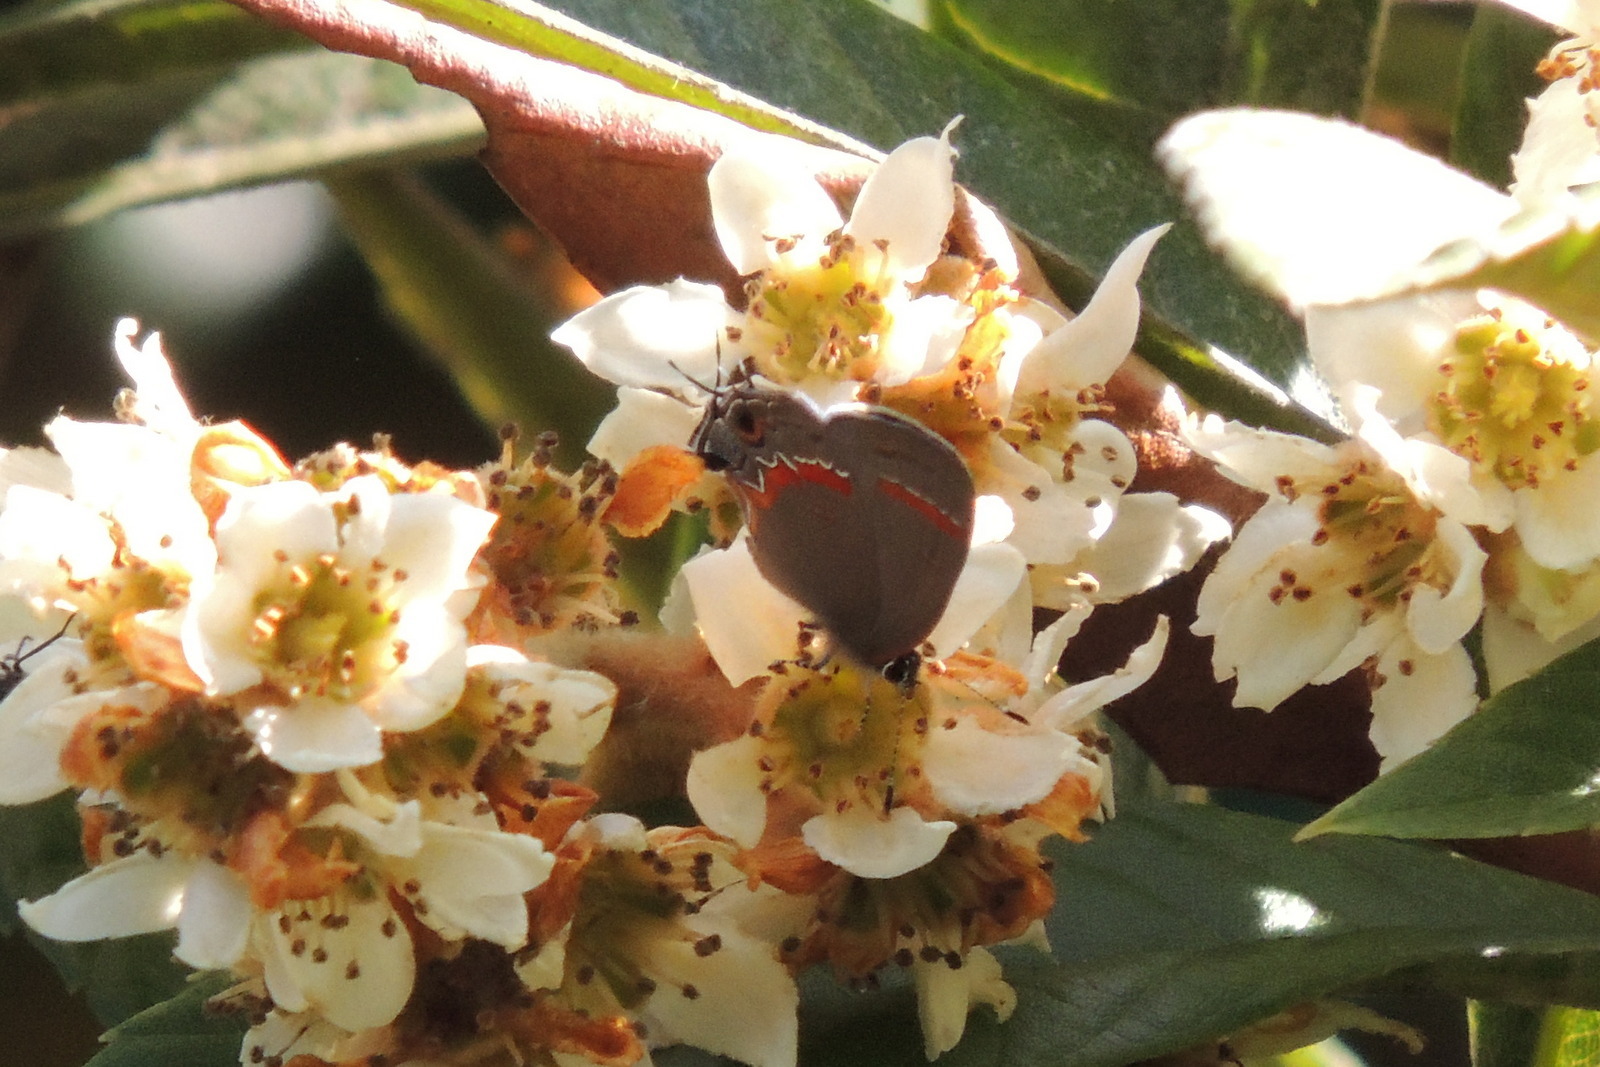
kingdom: Animalia
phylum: Arthropoda
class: Insecta
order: Lepidoptera
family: Lycaenidae
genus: Calycopis
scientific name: Calycopis cecrops
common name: Red-banded hairstreak
